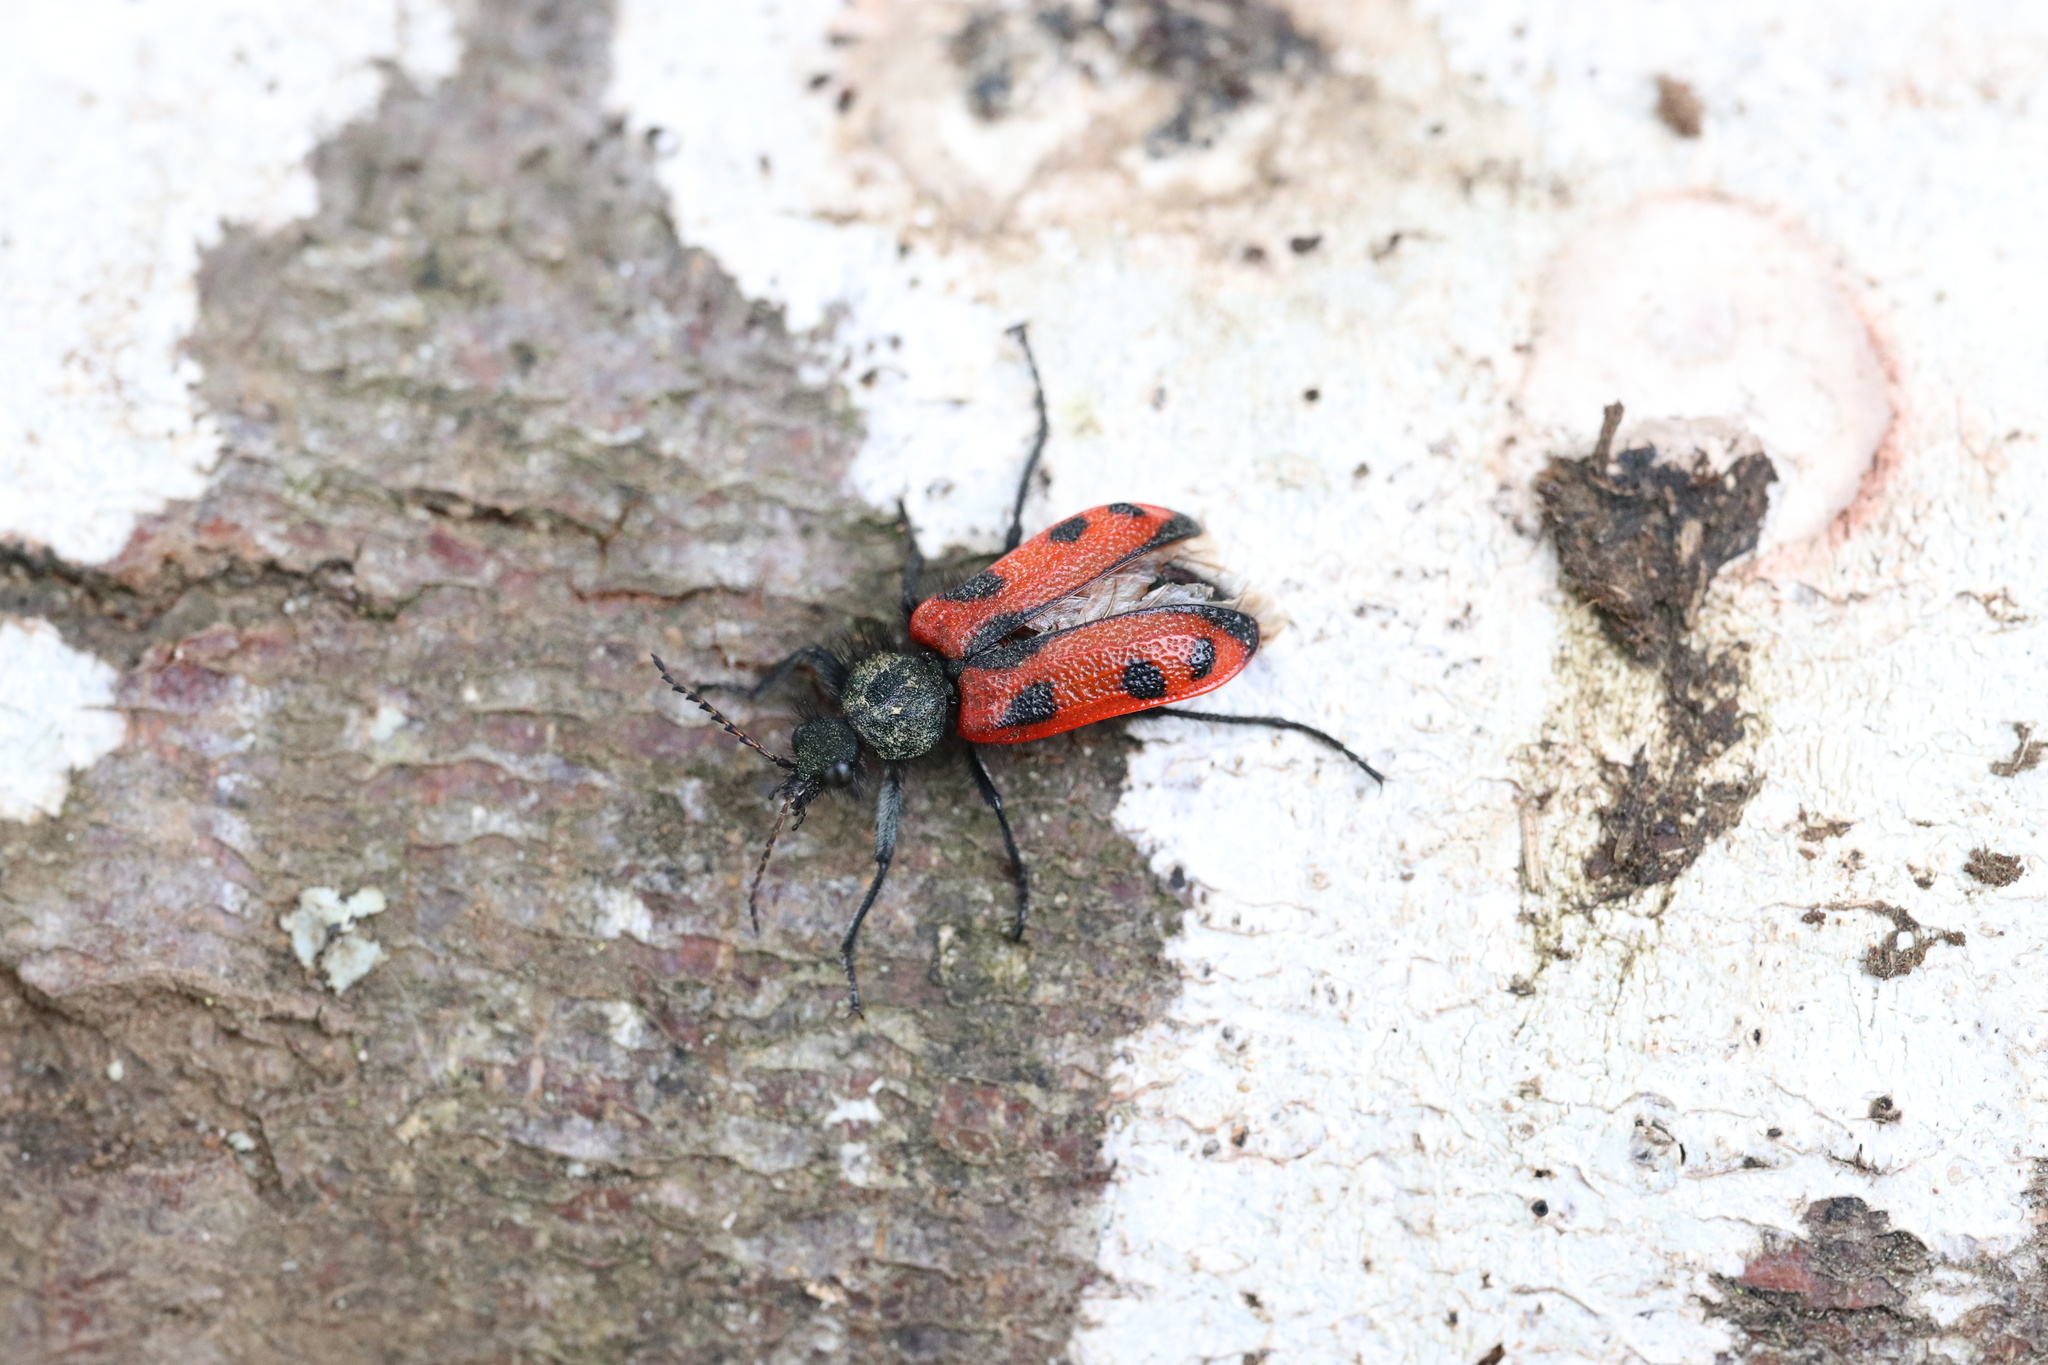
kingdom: Animalia
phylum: Arthropoda
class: Insecta
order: Coleoptera
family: Melyridae
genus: Astylus
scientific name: Astylus
